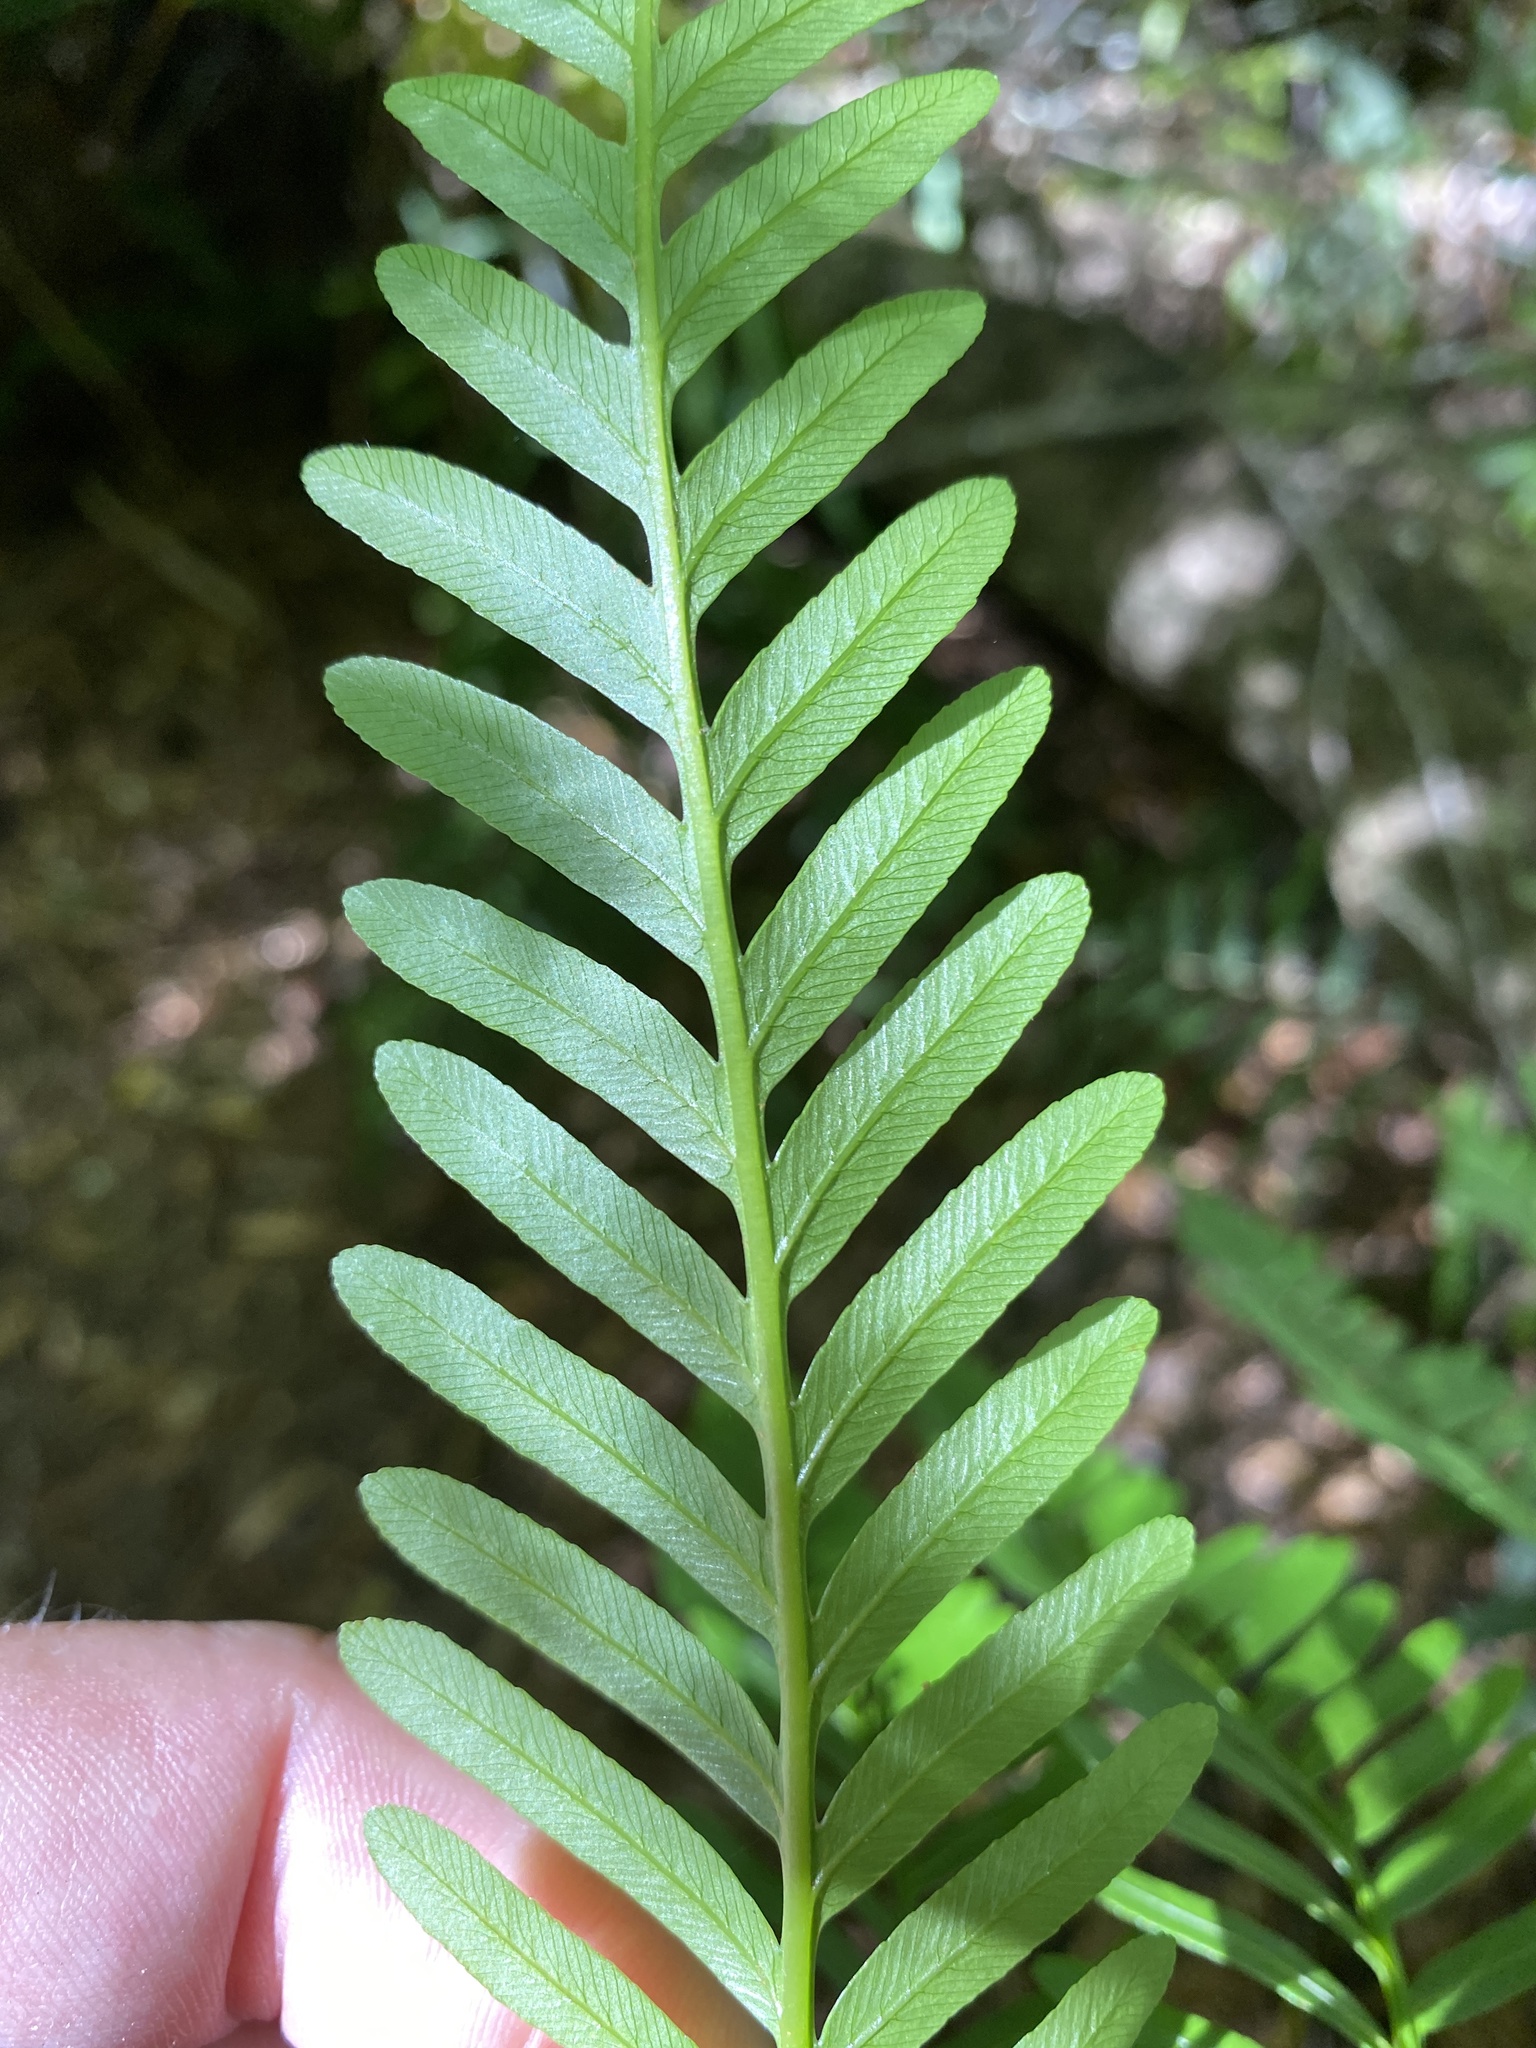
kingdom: Plantae
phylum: Tracheophyta
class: Polypodiopsida
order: Osmundales
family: Osmundaceae
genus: Todea
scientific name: Todea barbara
